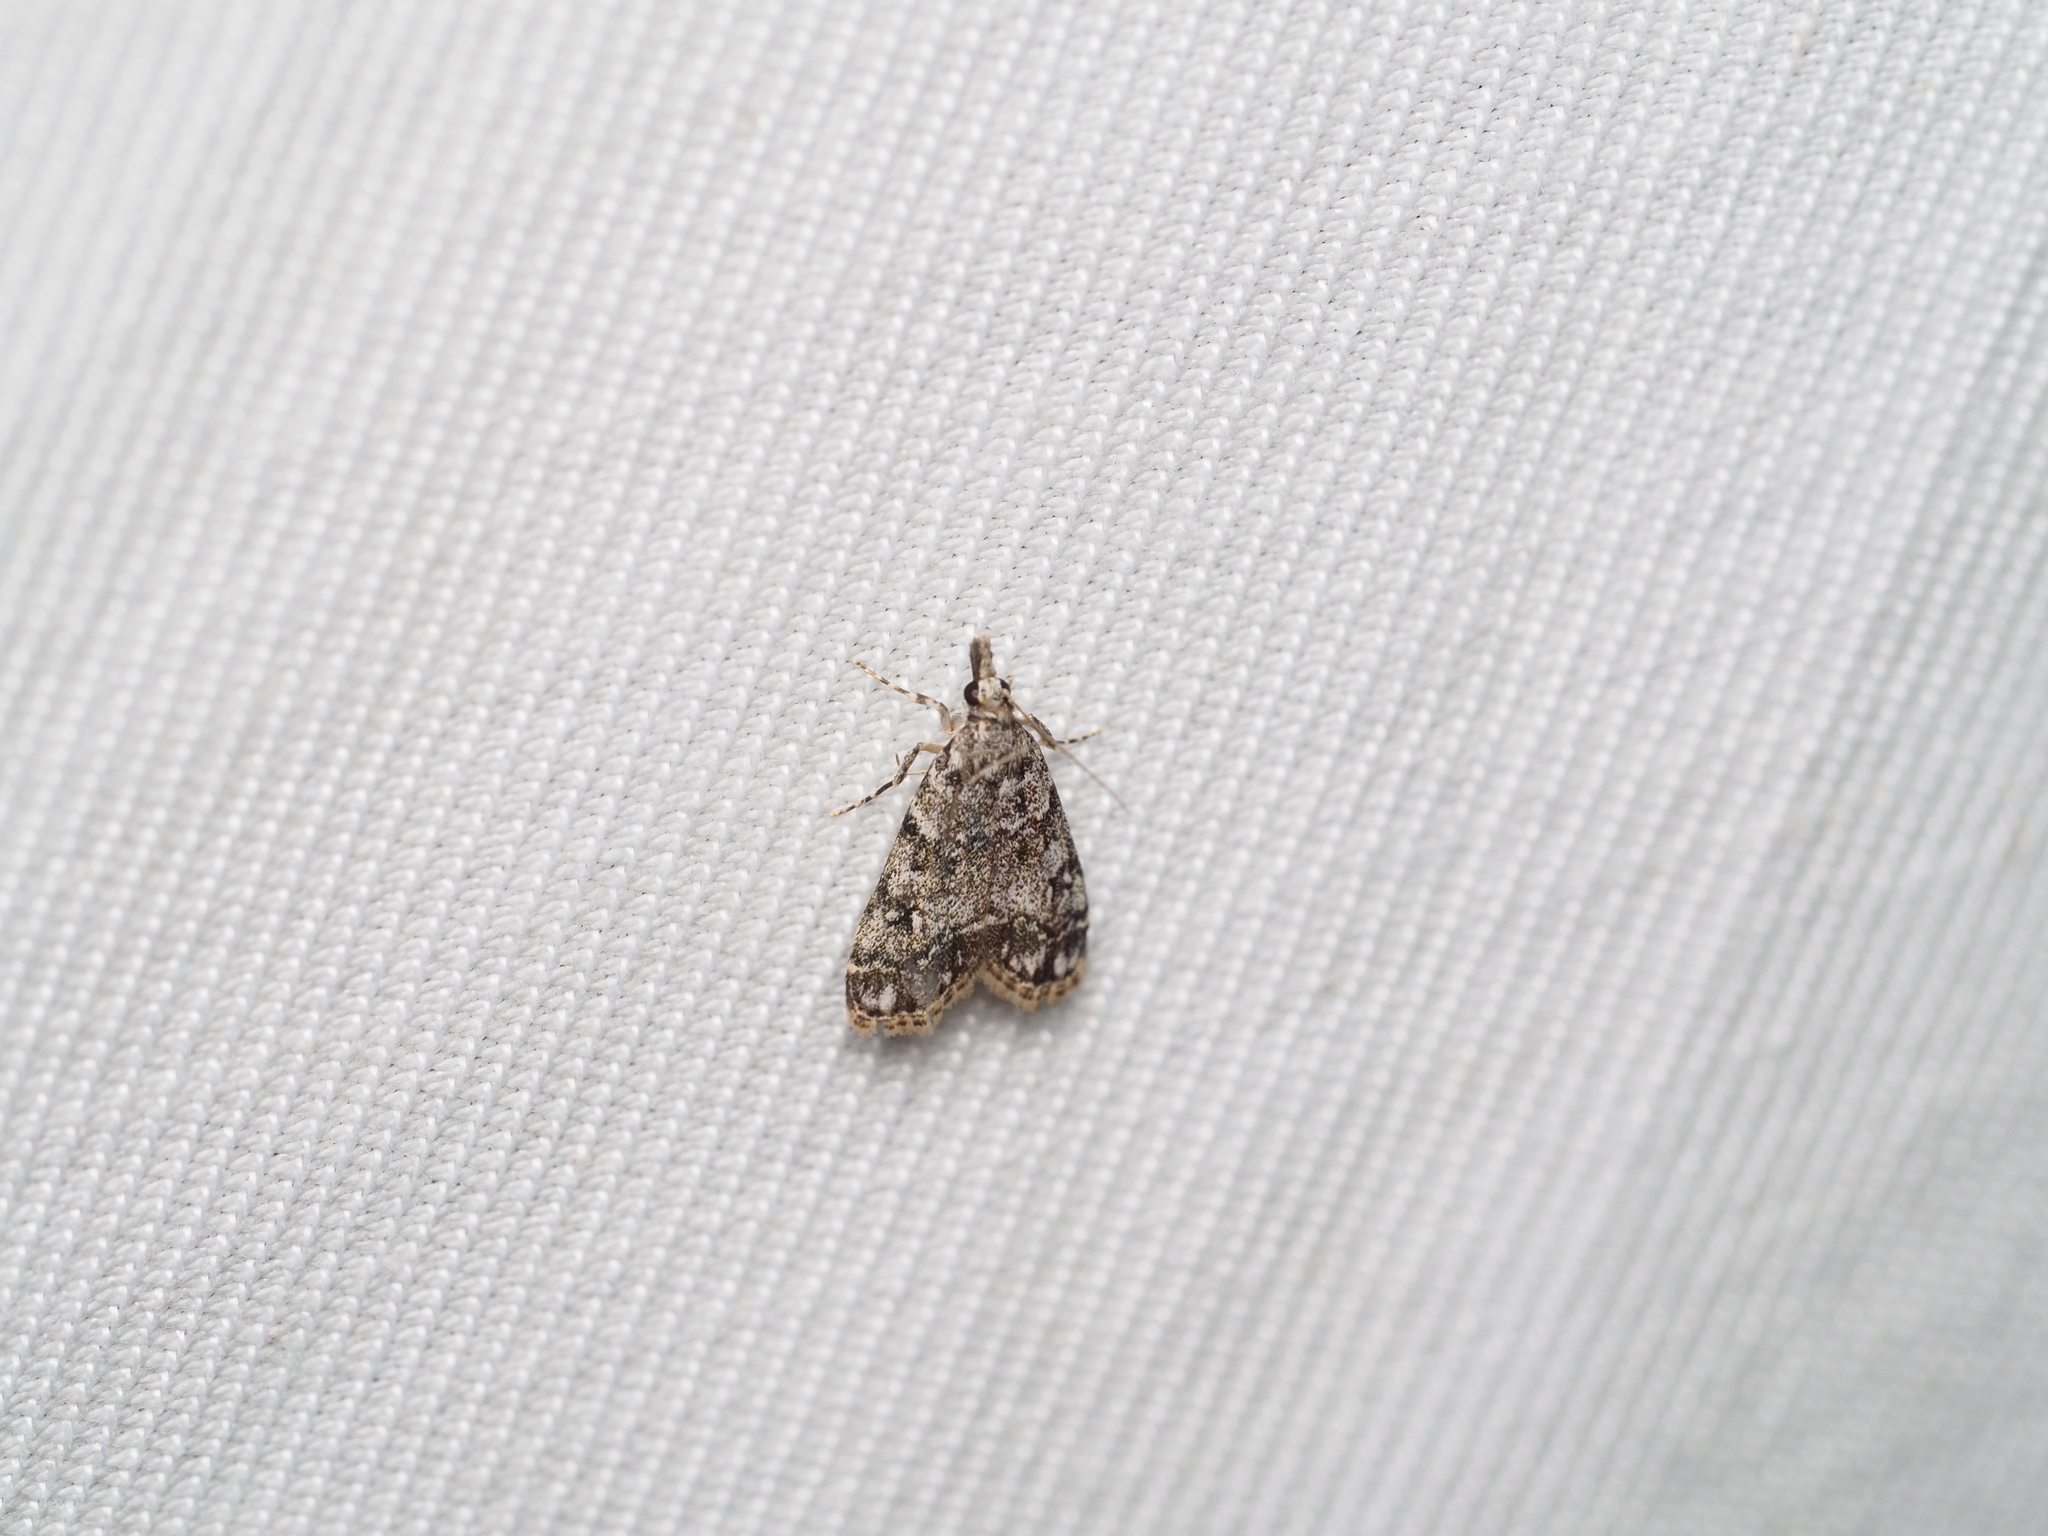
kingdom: Animalia
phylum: Arthropoda
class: Insecta
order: Lepidoptera
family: Crambidae
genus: Eudonia
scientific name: Eudonia lacustrata
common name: Little grey
